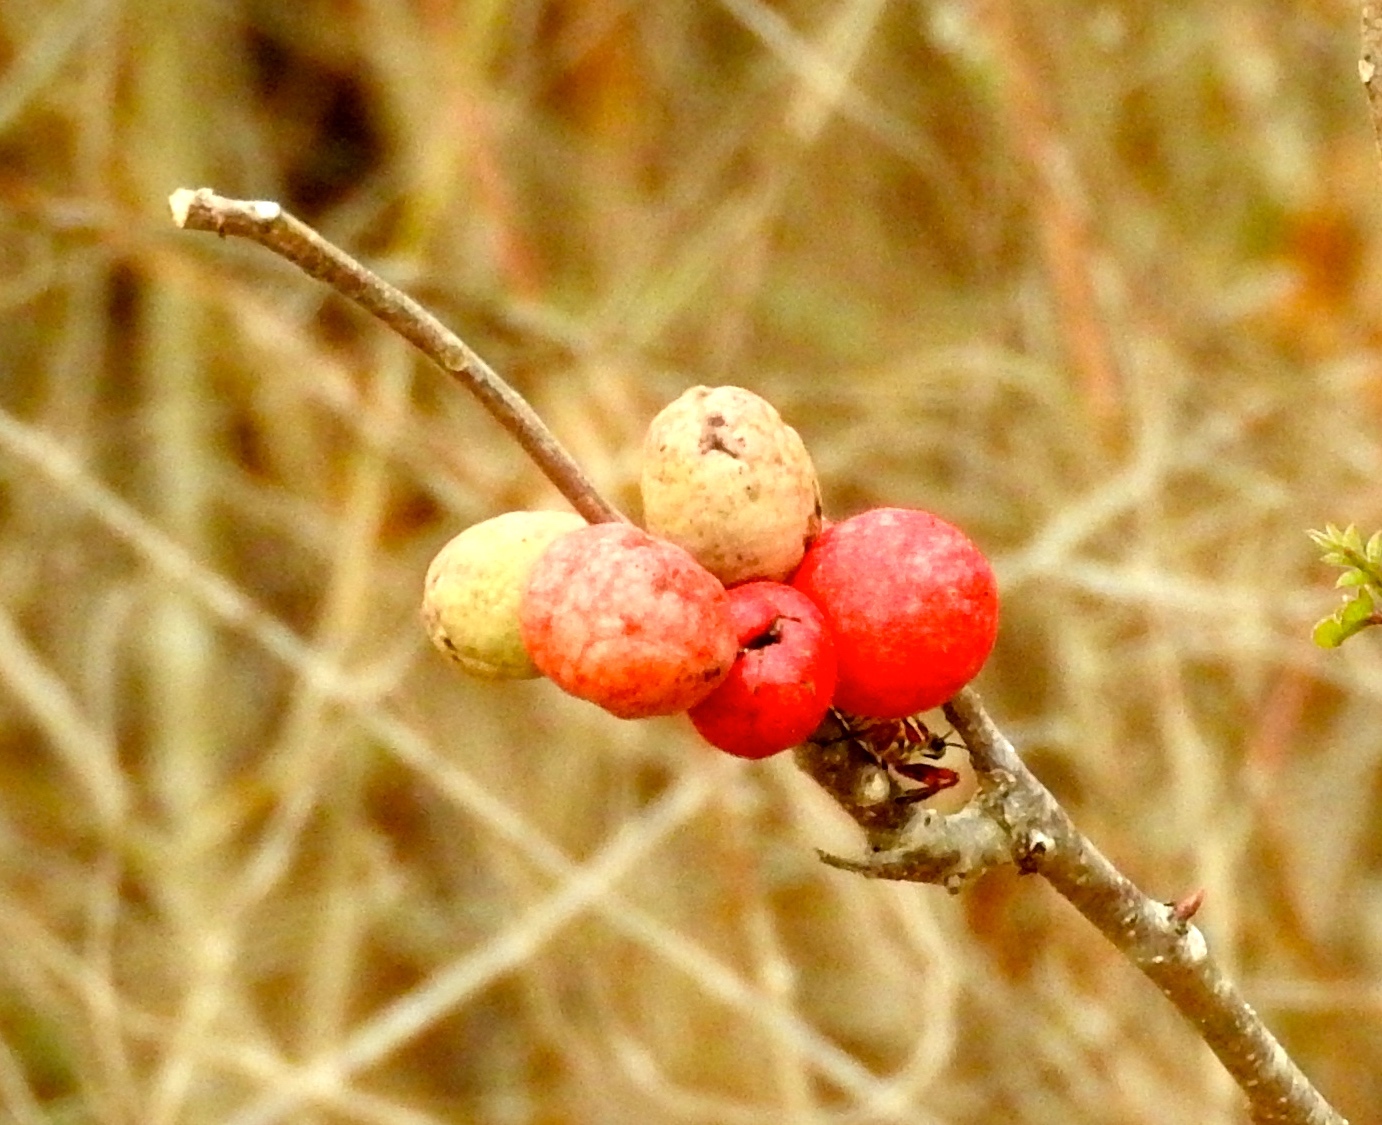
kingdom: Plantae
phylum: Tracheophyta
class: Magnoliopsida
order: Sapindales
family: Anacardiaceae
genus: Spondias
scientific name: Spondias purpurea
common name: Purple mombin
